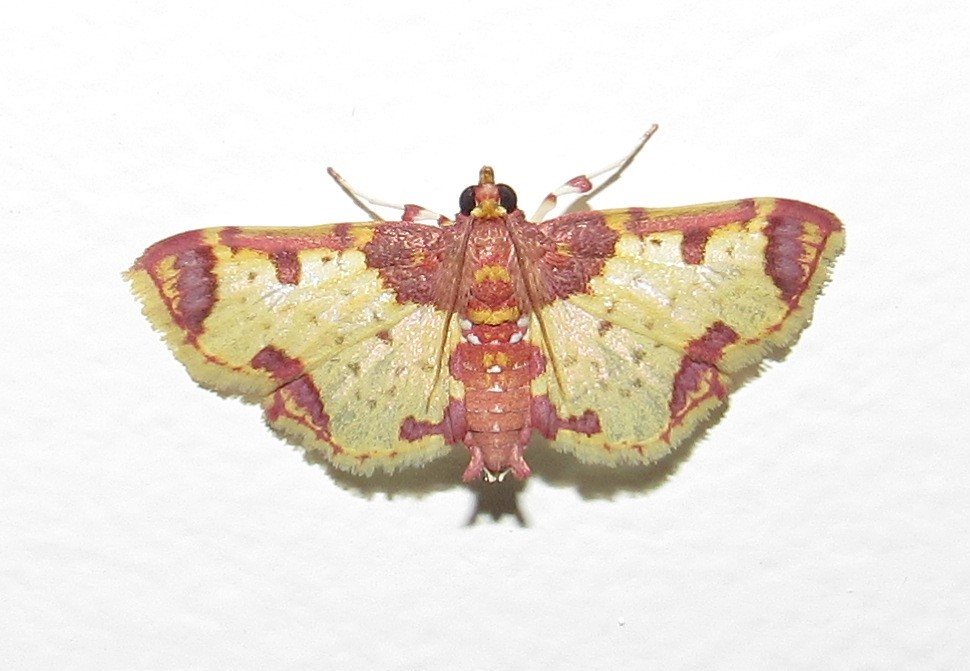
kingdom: Animalia
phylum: Arthropoda
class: Insecta
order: Lepidoptera
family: Crambidae
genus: Megastes
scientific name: Megastes
